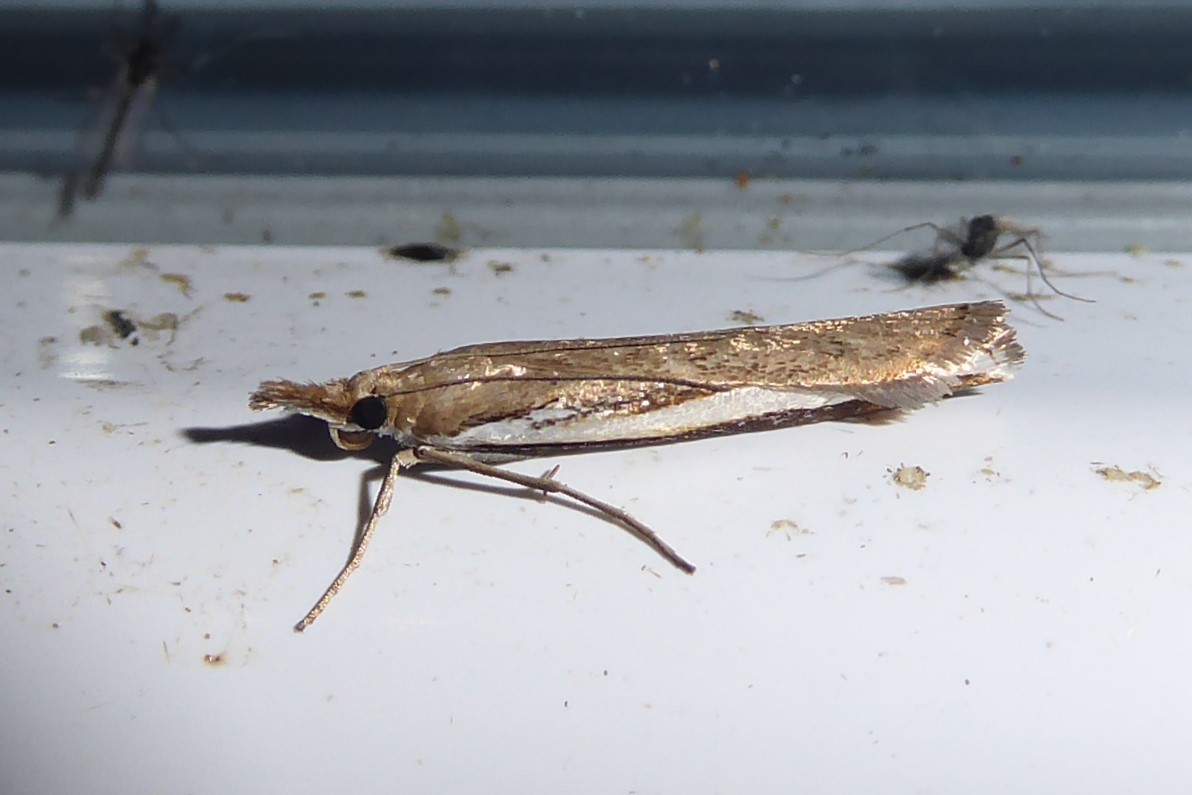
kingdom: Animalia
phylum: Arthropoda
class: Insecta
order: Lepidoptera
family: Crambidae
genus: Orocrambus
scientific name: Orocrambus flexuosellus
